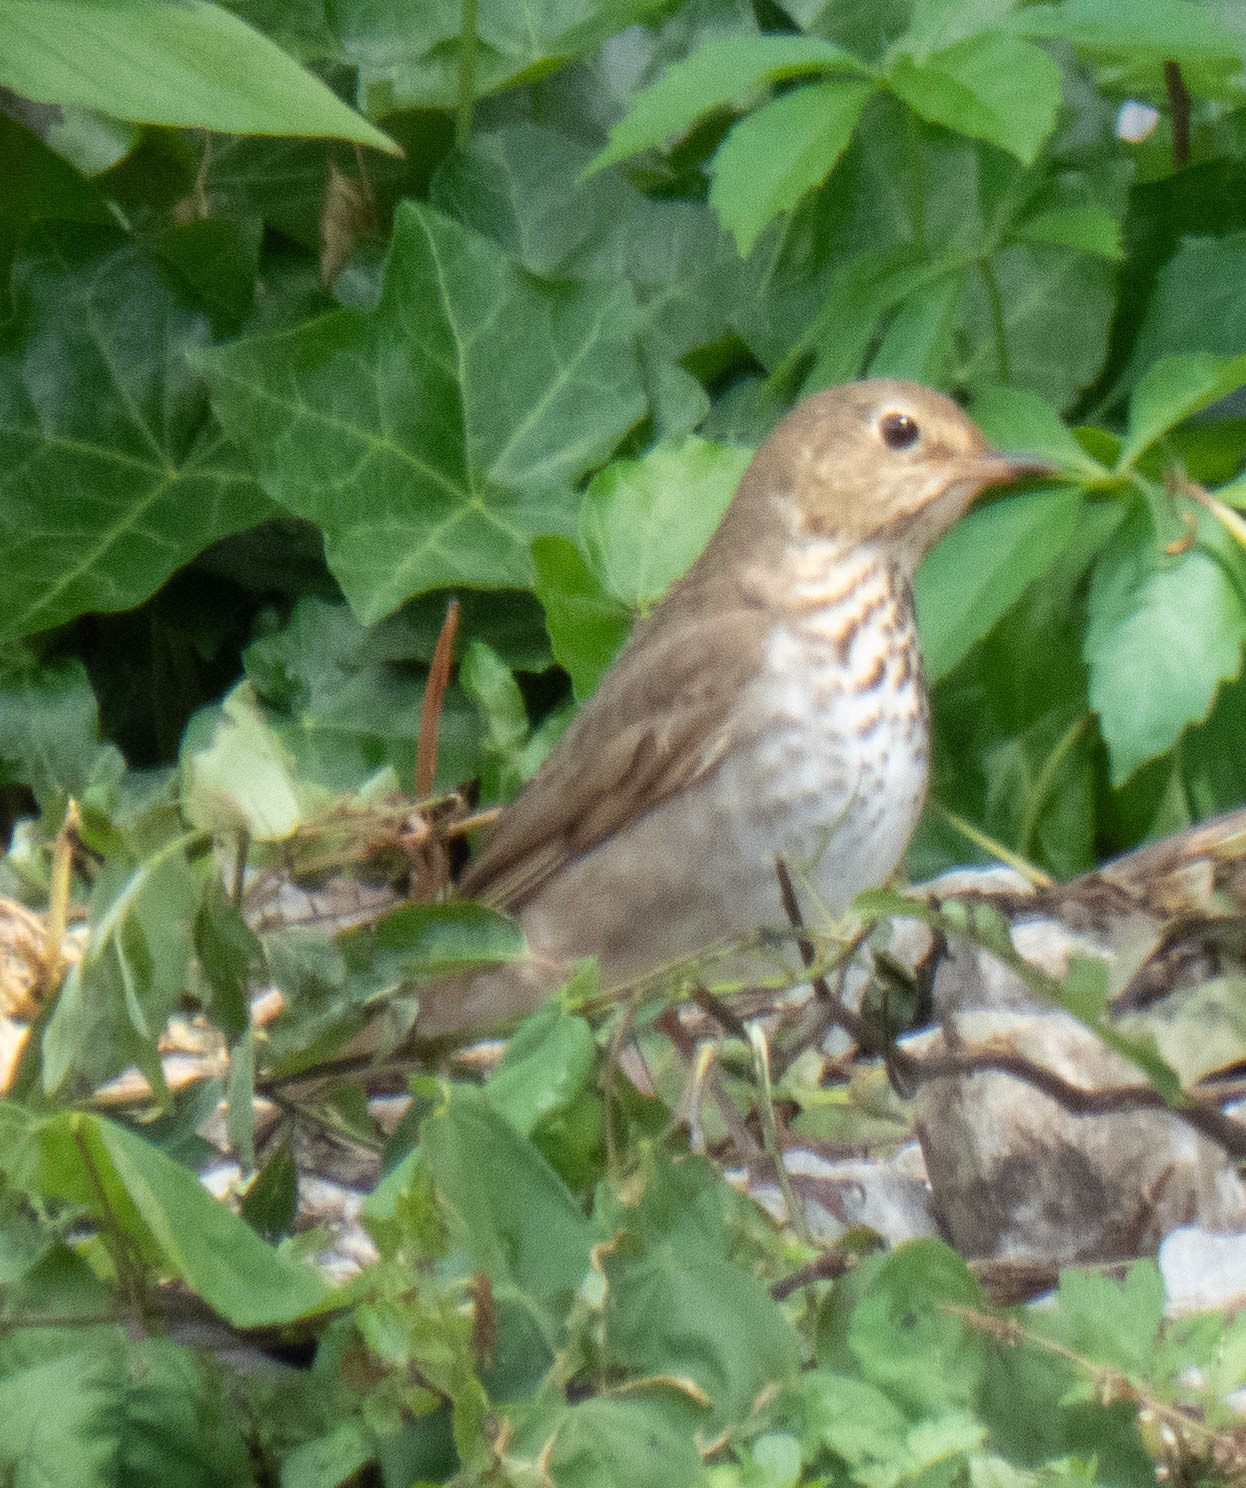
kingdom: Animalia
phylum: Chordata
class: Aves
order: Passeriformes
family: Turdidae
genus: Catharus
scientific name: Catharus ustulatus
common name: Swainson's thrush
